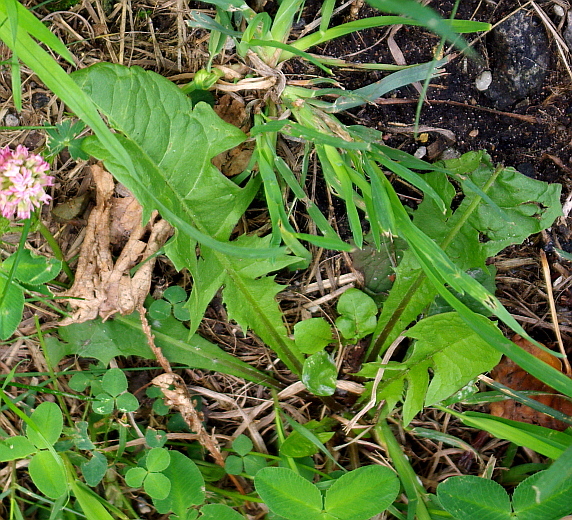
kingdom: Plantae
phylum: Tracheophyta
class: Magnoliopsida
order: Asterales
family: Asteraceae
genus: Taraxacum
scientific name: Taraxacum officinale
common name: Common dandelion
